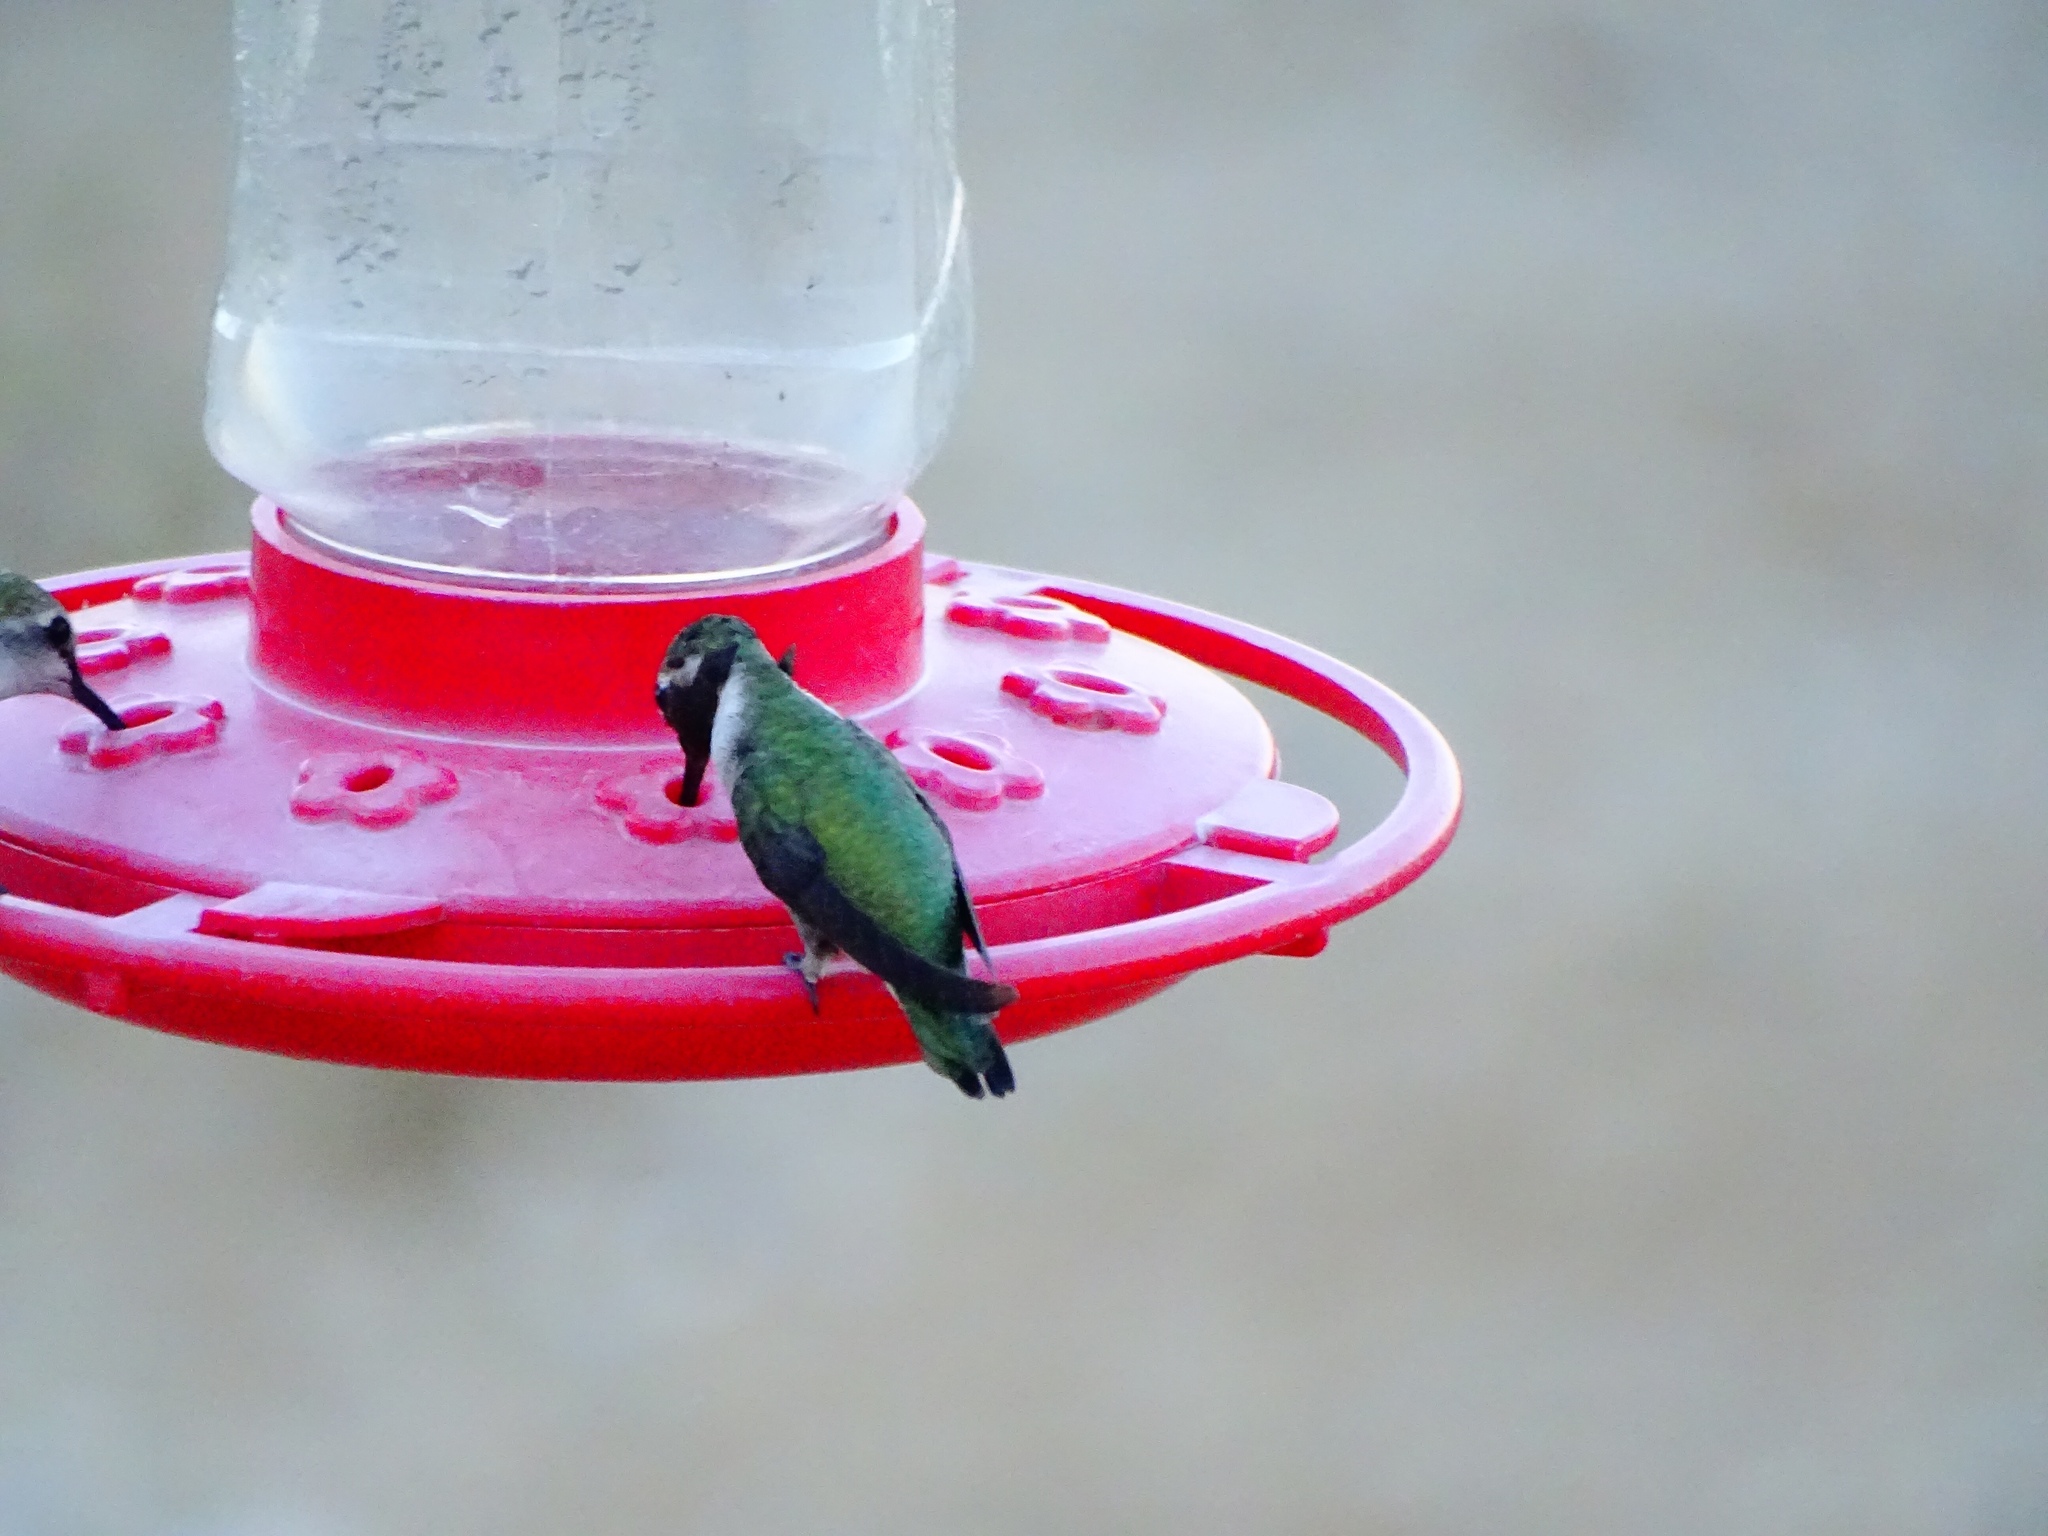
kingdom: Animalia
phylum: Chordata
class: Aves
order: Apodiformes
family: Trochilidae
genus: Calypte
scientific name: Calypte costae
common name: Costa's hummingbird
